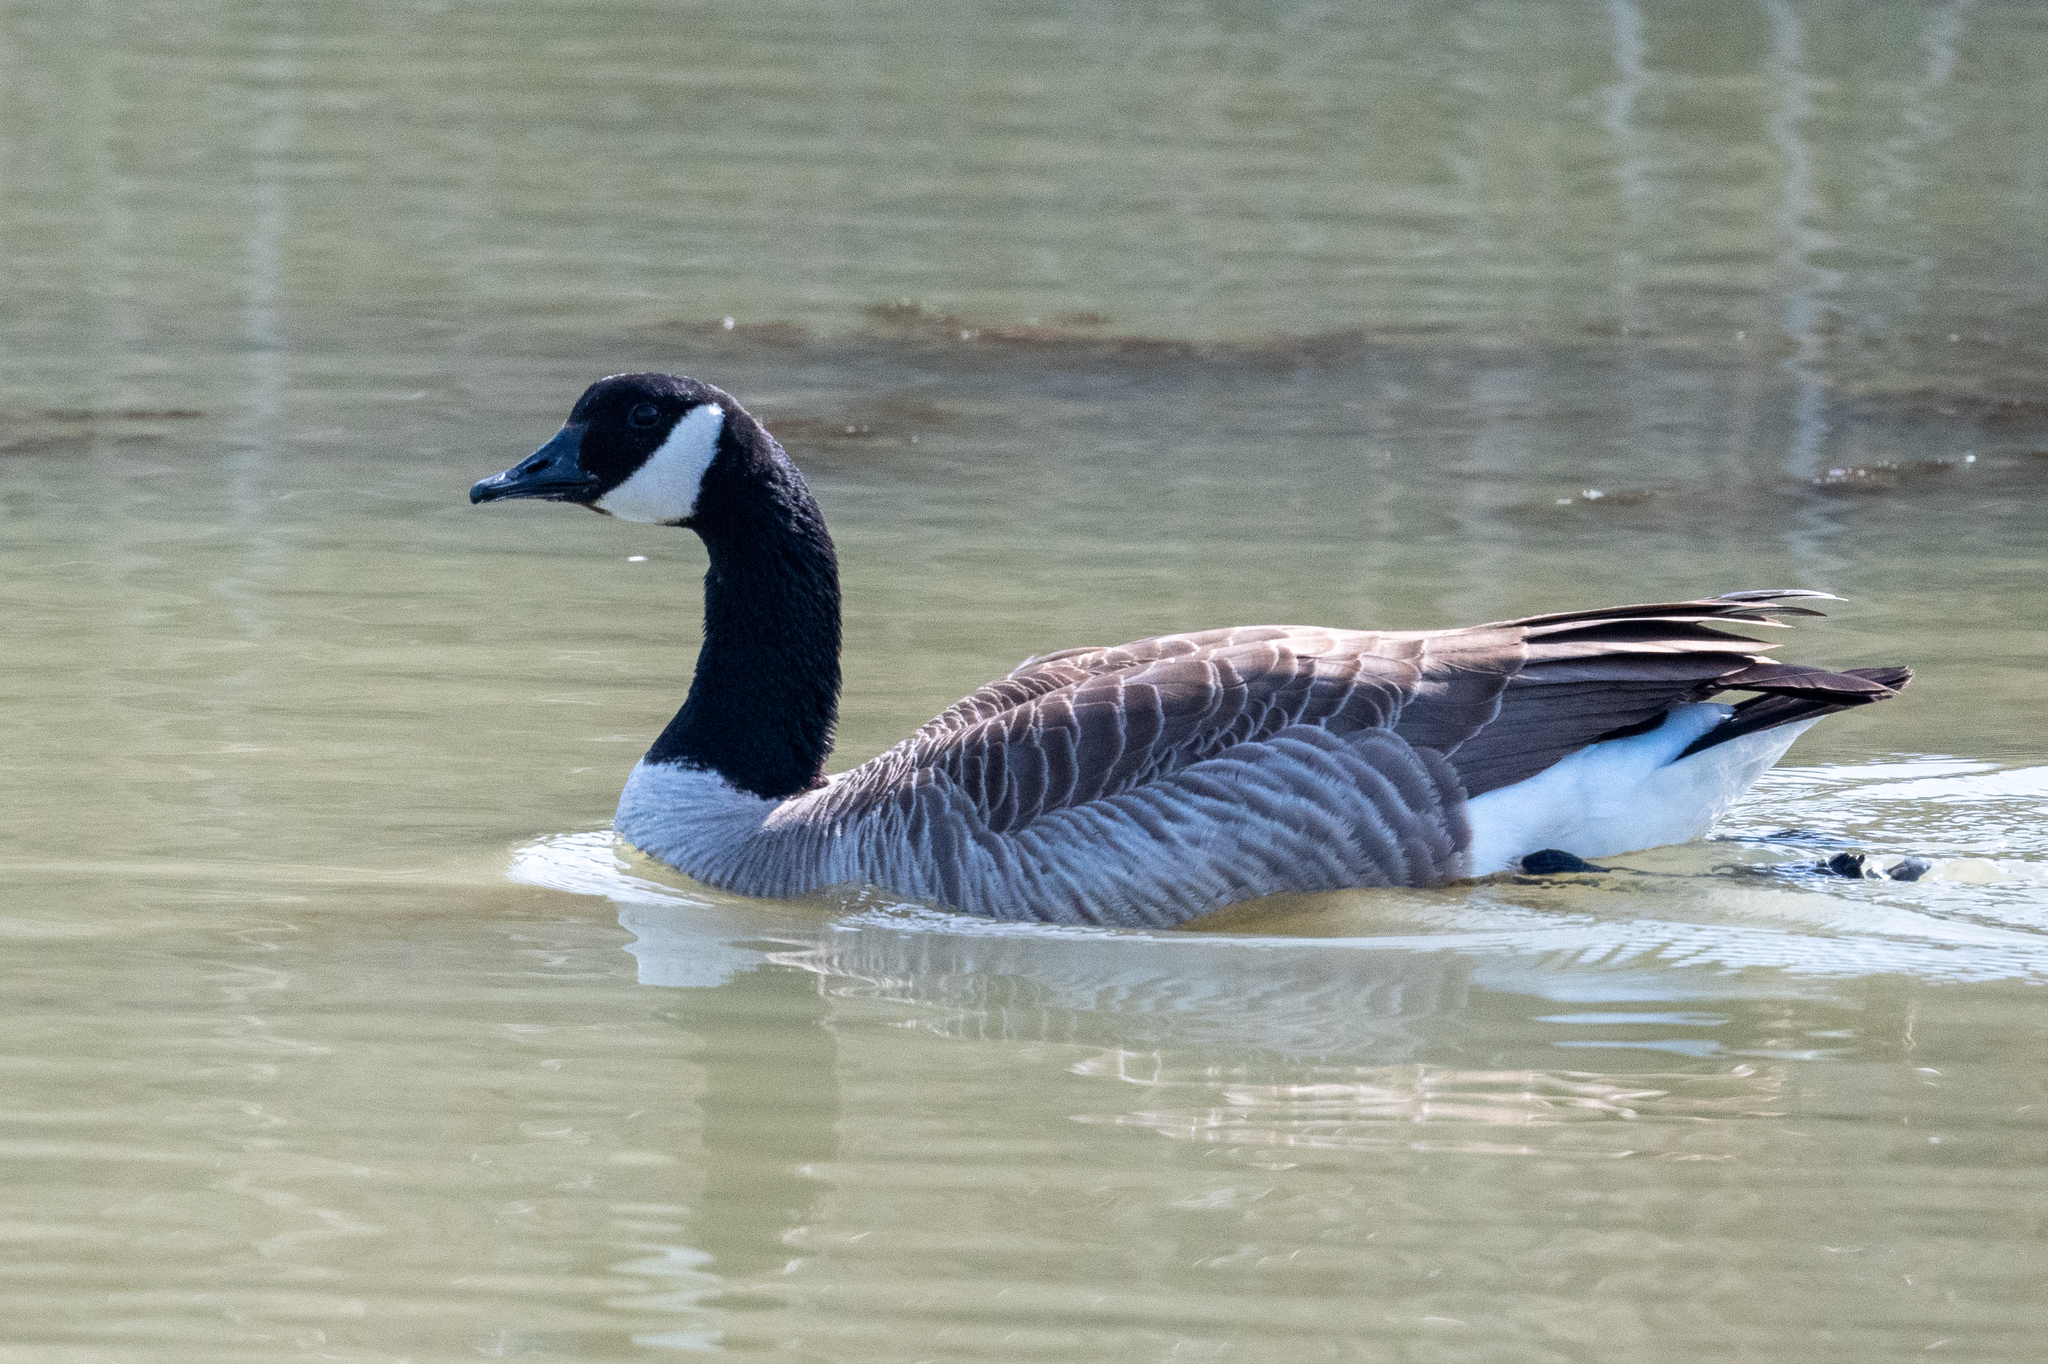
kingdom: Animalia
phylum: Chordata
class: Aves
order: Anseriformes
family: Anatidae
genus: Branta
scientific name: Branta canadensis
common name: Canada goose
